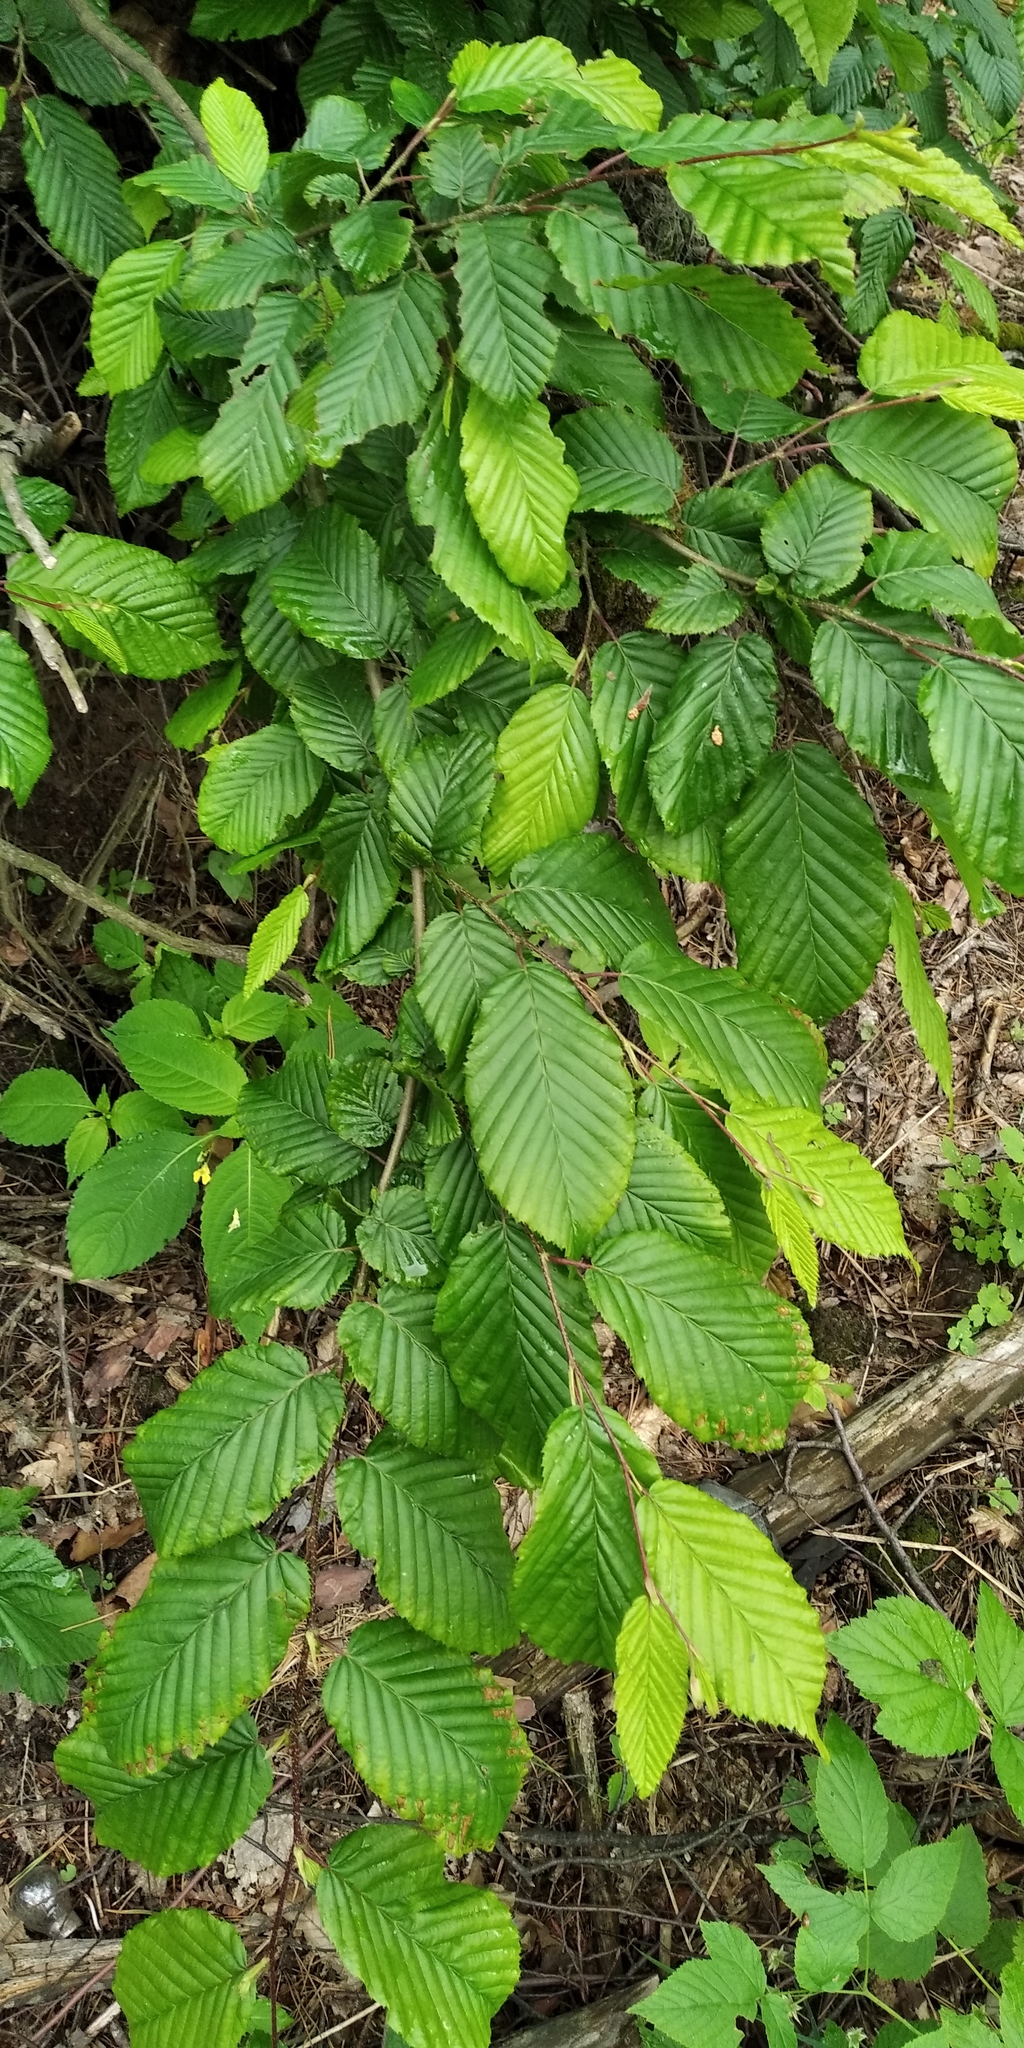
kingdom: Plantae
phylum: Tracheophyta
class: Magnoliopsida
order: Fagales
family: Betulaceae
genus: Carpinus
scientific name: Carpinus betulus
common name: Hornbeam
